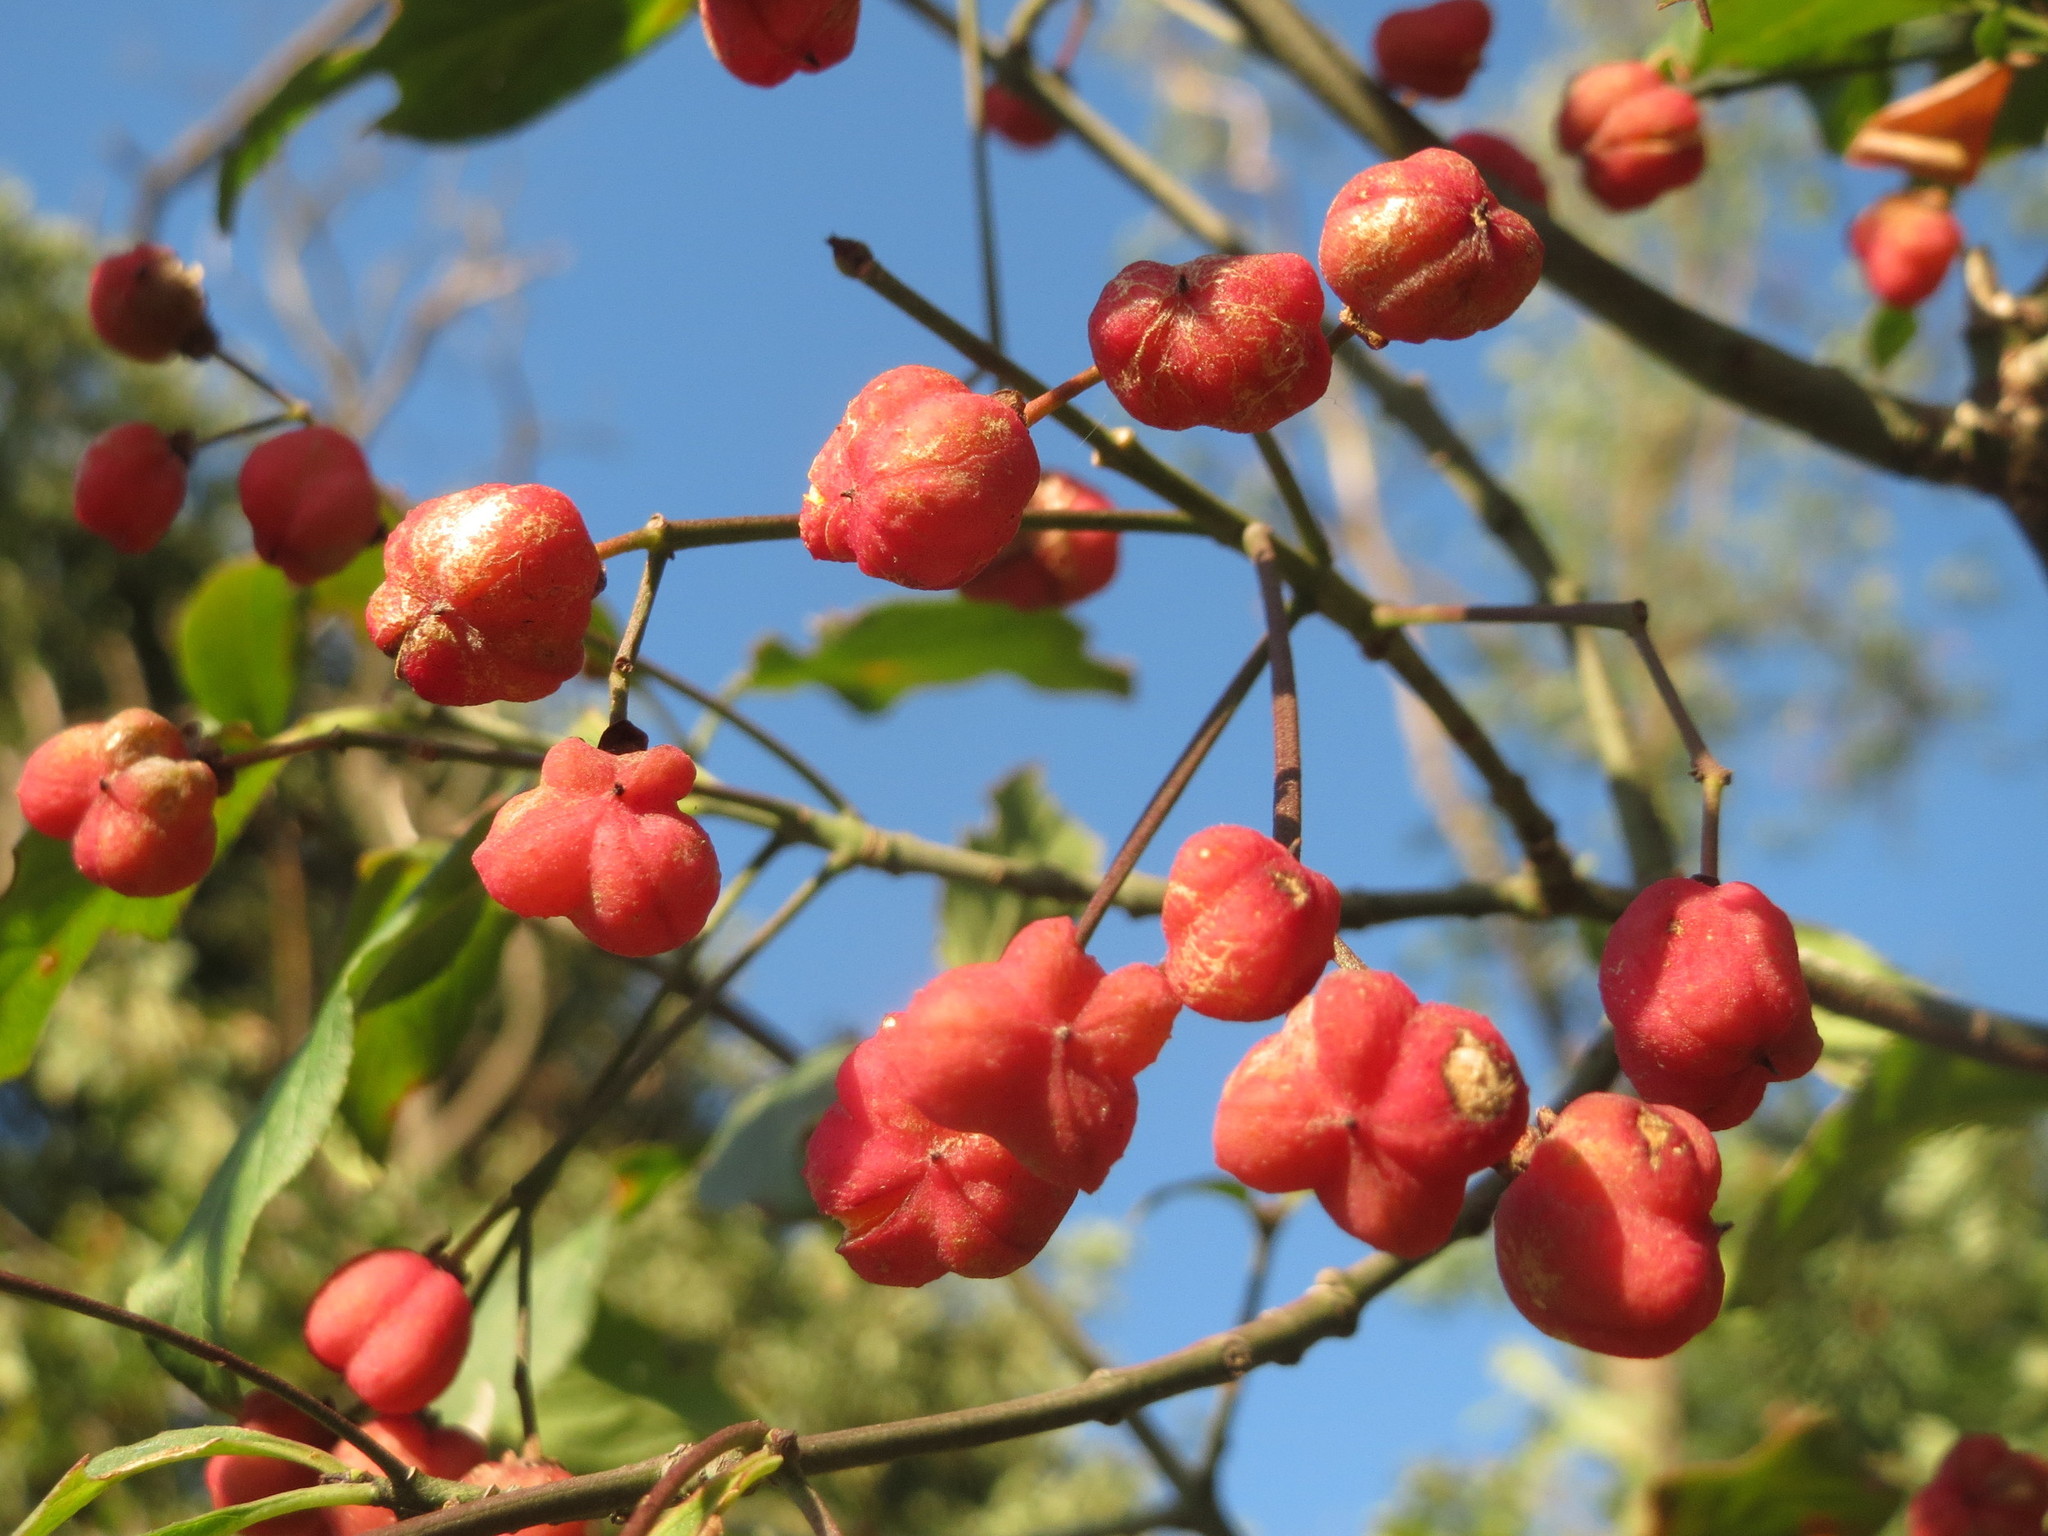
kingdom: Plantae
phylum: Tracheophyta
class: Magnoliopsida
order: Celastrales
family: Celastraceae
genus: Euonymus
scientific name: Euonymus europaeus
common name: Spindle
